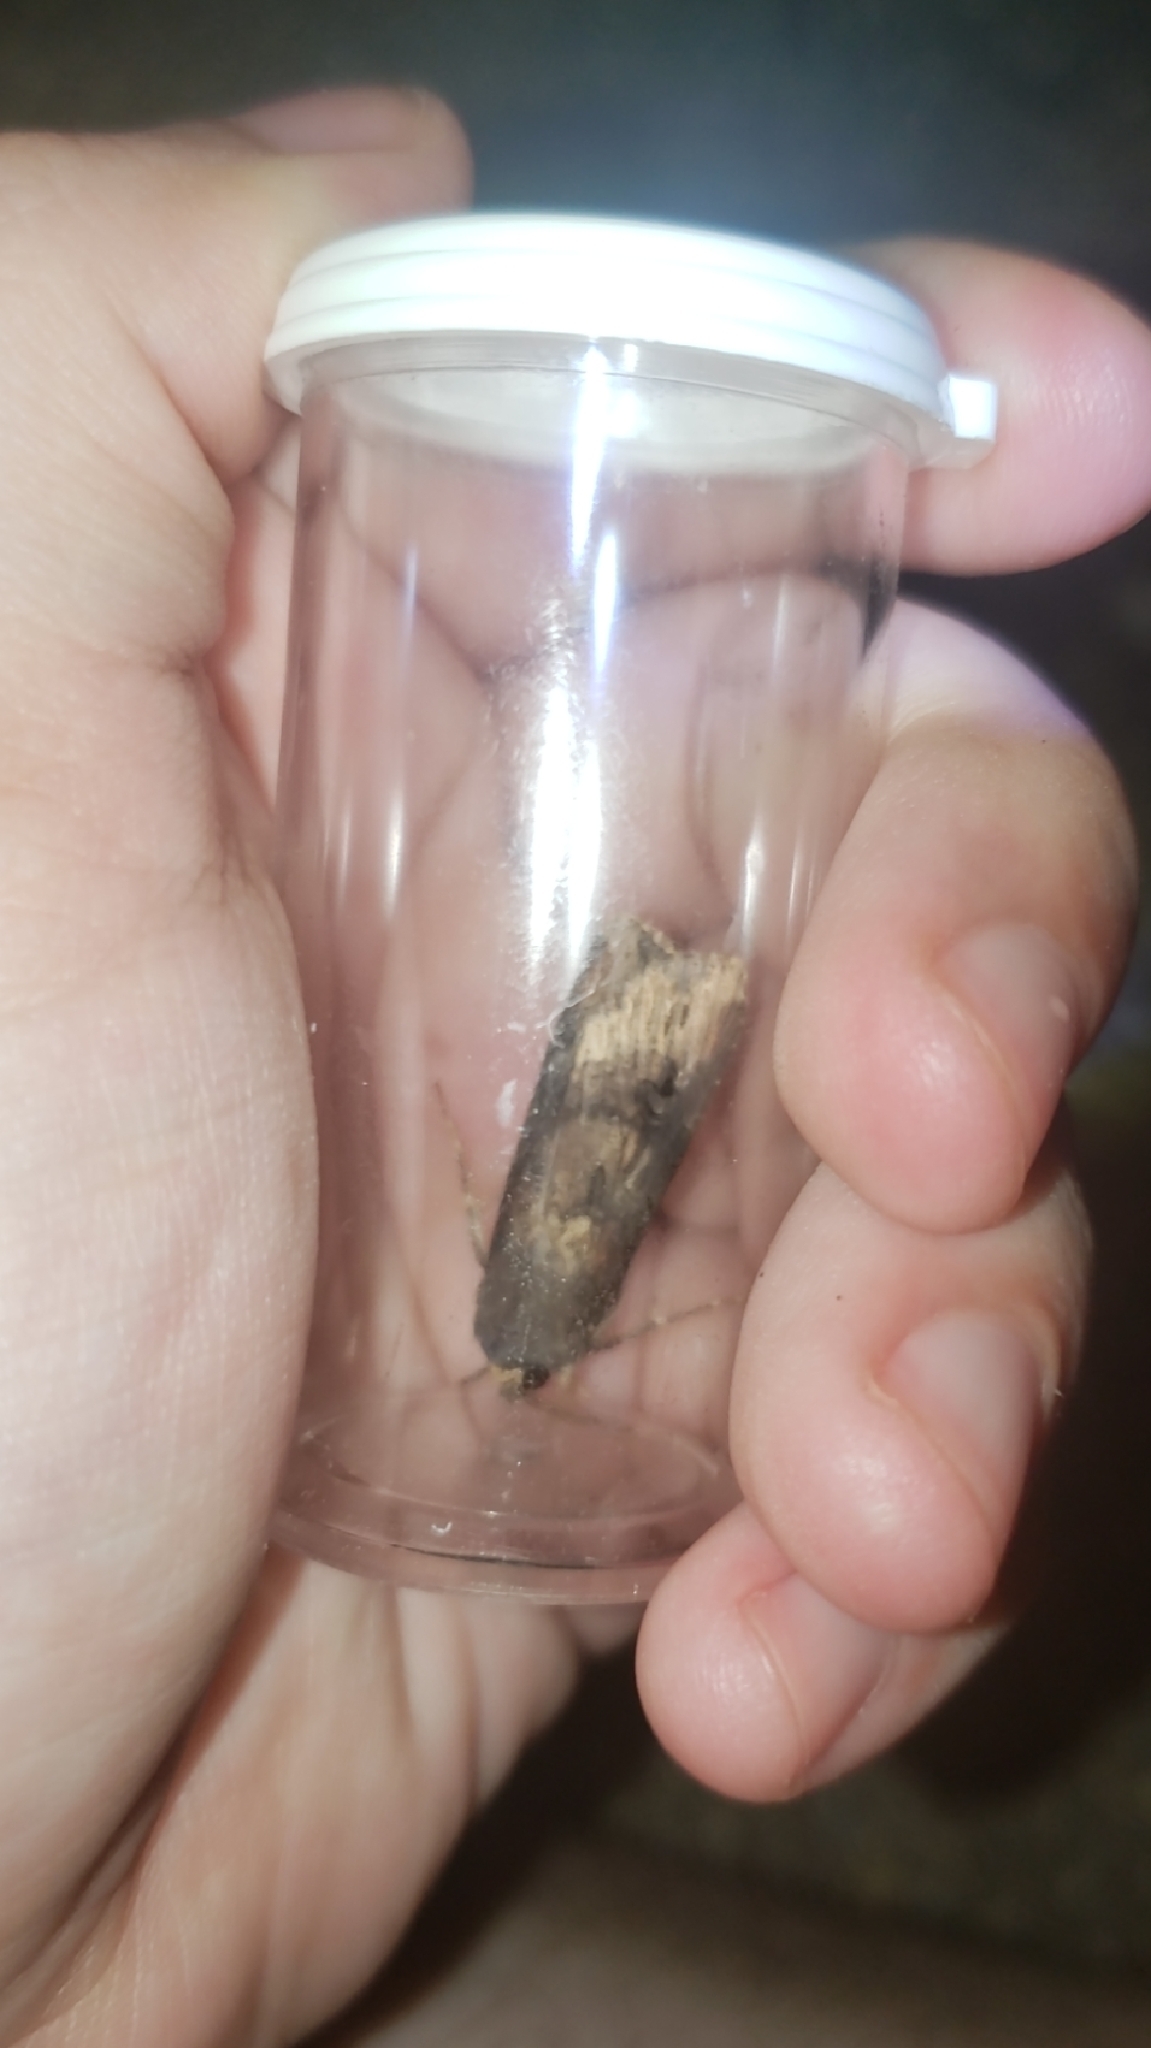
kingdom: Animalia
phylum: Arthropoda
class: Insecta
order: Lepidoptera
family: Noctuidae
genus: Agrotis
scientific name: Agrotis ipsilon
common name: Dark sword-grass
